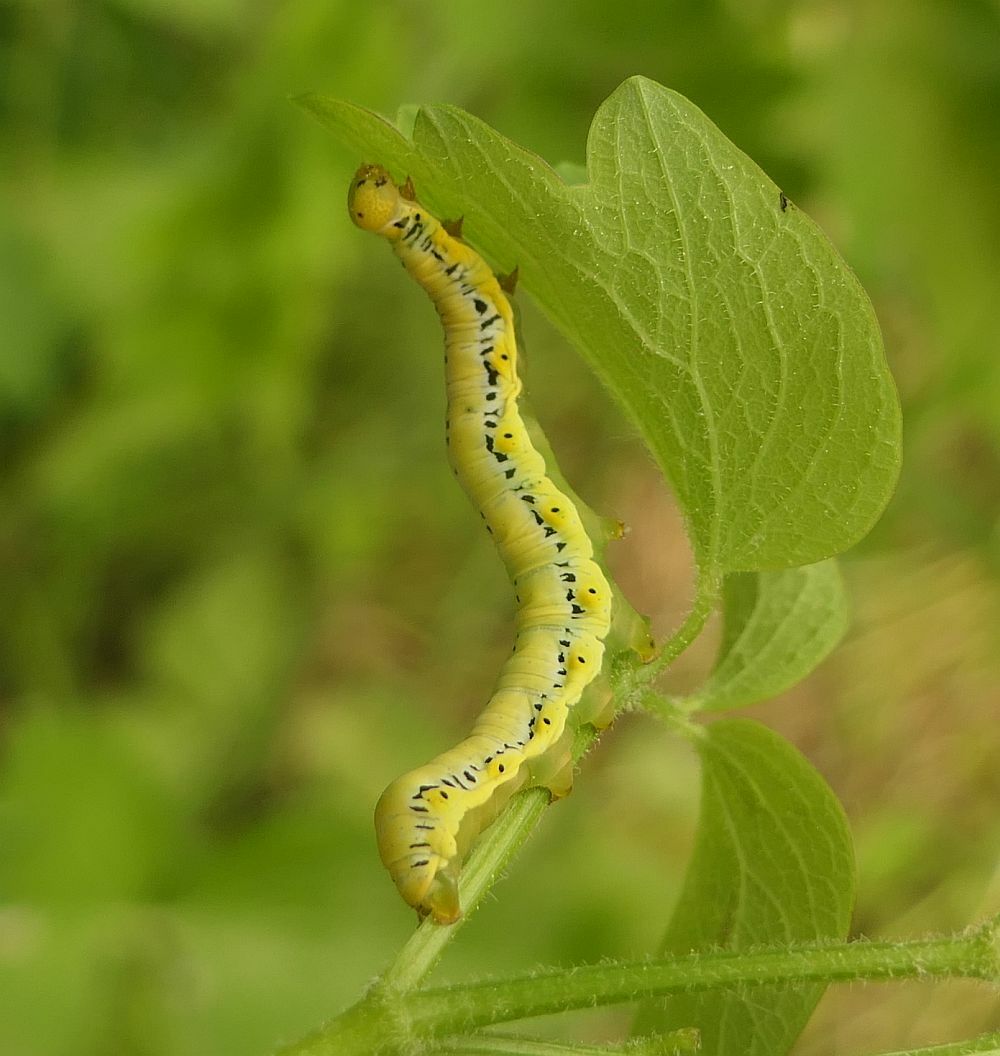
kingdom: Animalia
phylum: Arthropoda
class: Insecta
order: Lepidoptera
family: Erebidae
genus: Calyptra
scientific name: Calyptra canadensis
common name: Canadian owlet
